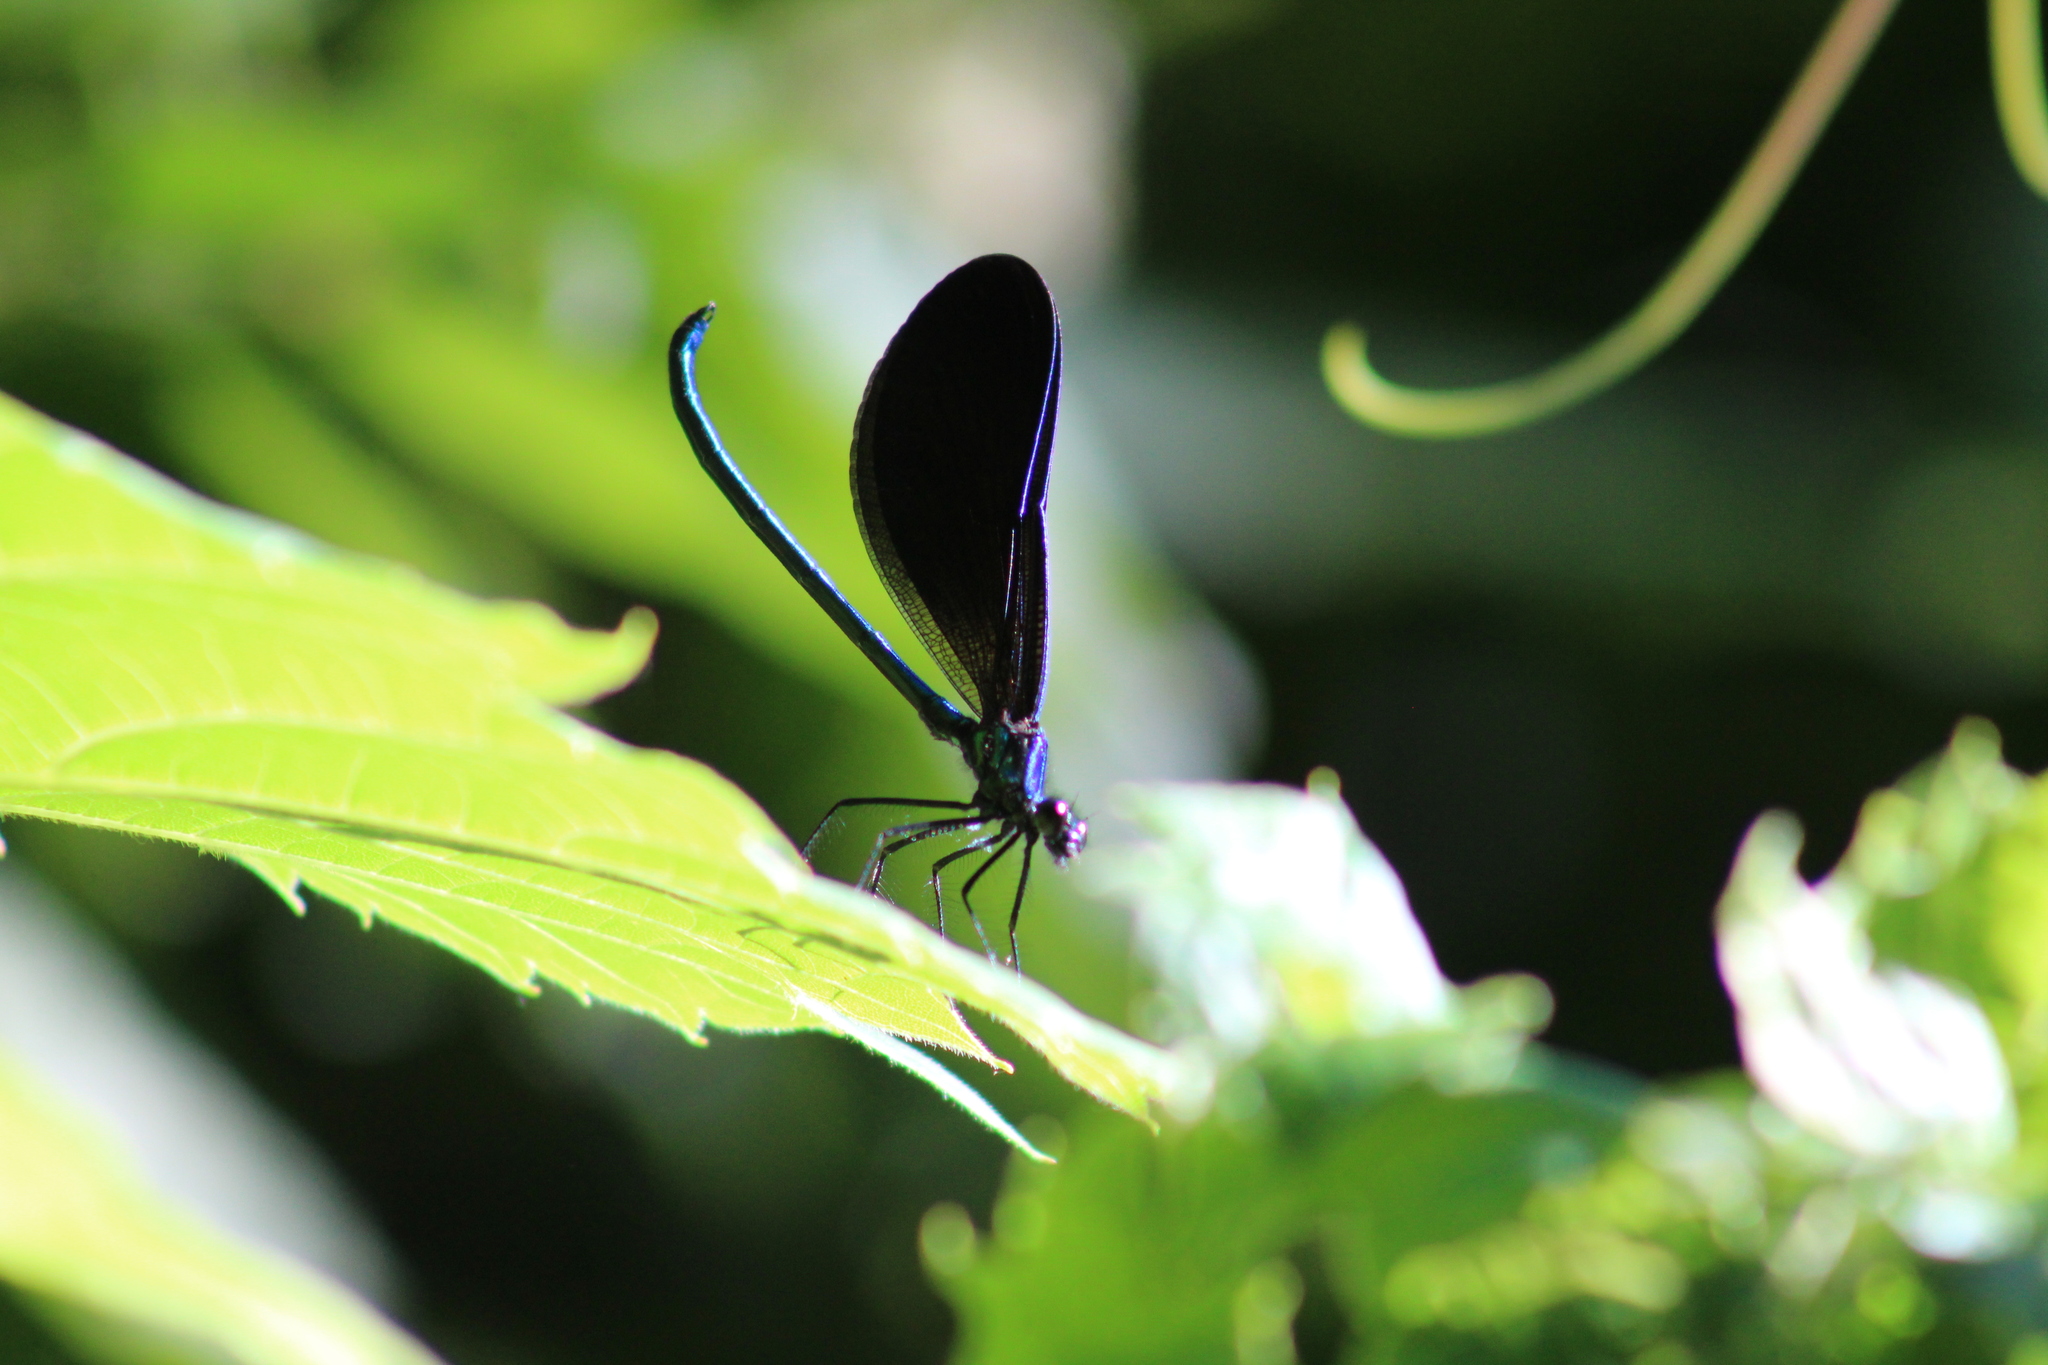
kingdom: Animalia
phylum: Arthropoda
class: Insecta
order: Odonata
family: Calopterygidae
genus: Calopteryx
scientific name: Calopteryx maculata
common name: Ebony jewelwing
